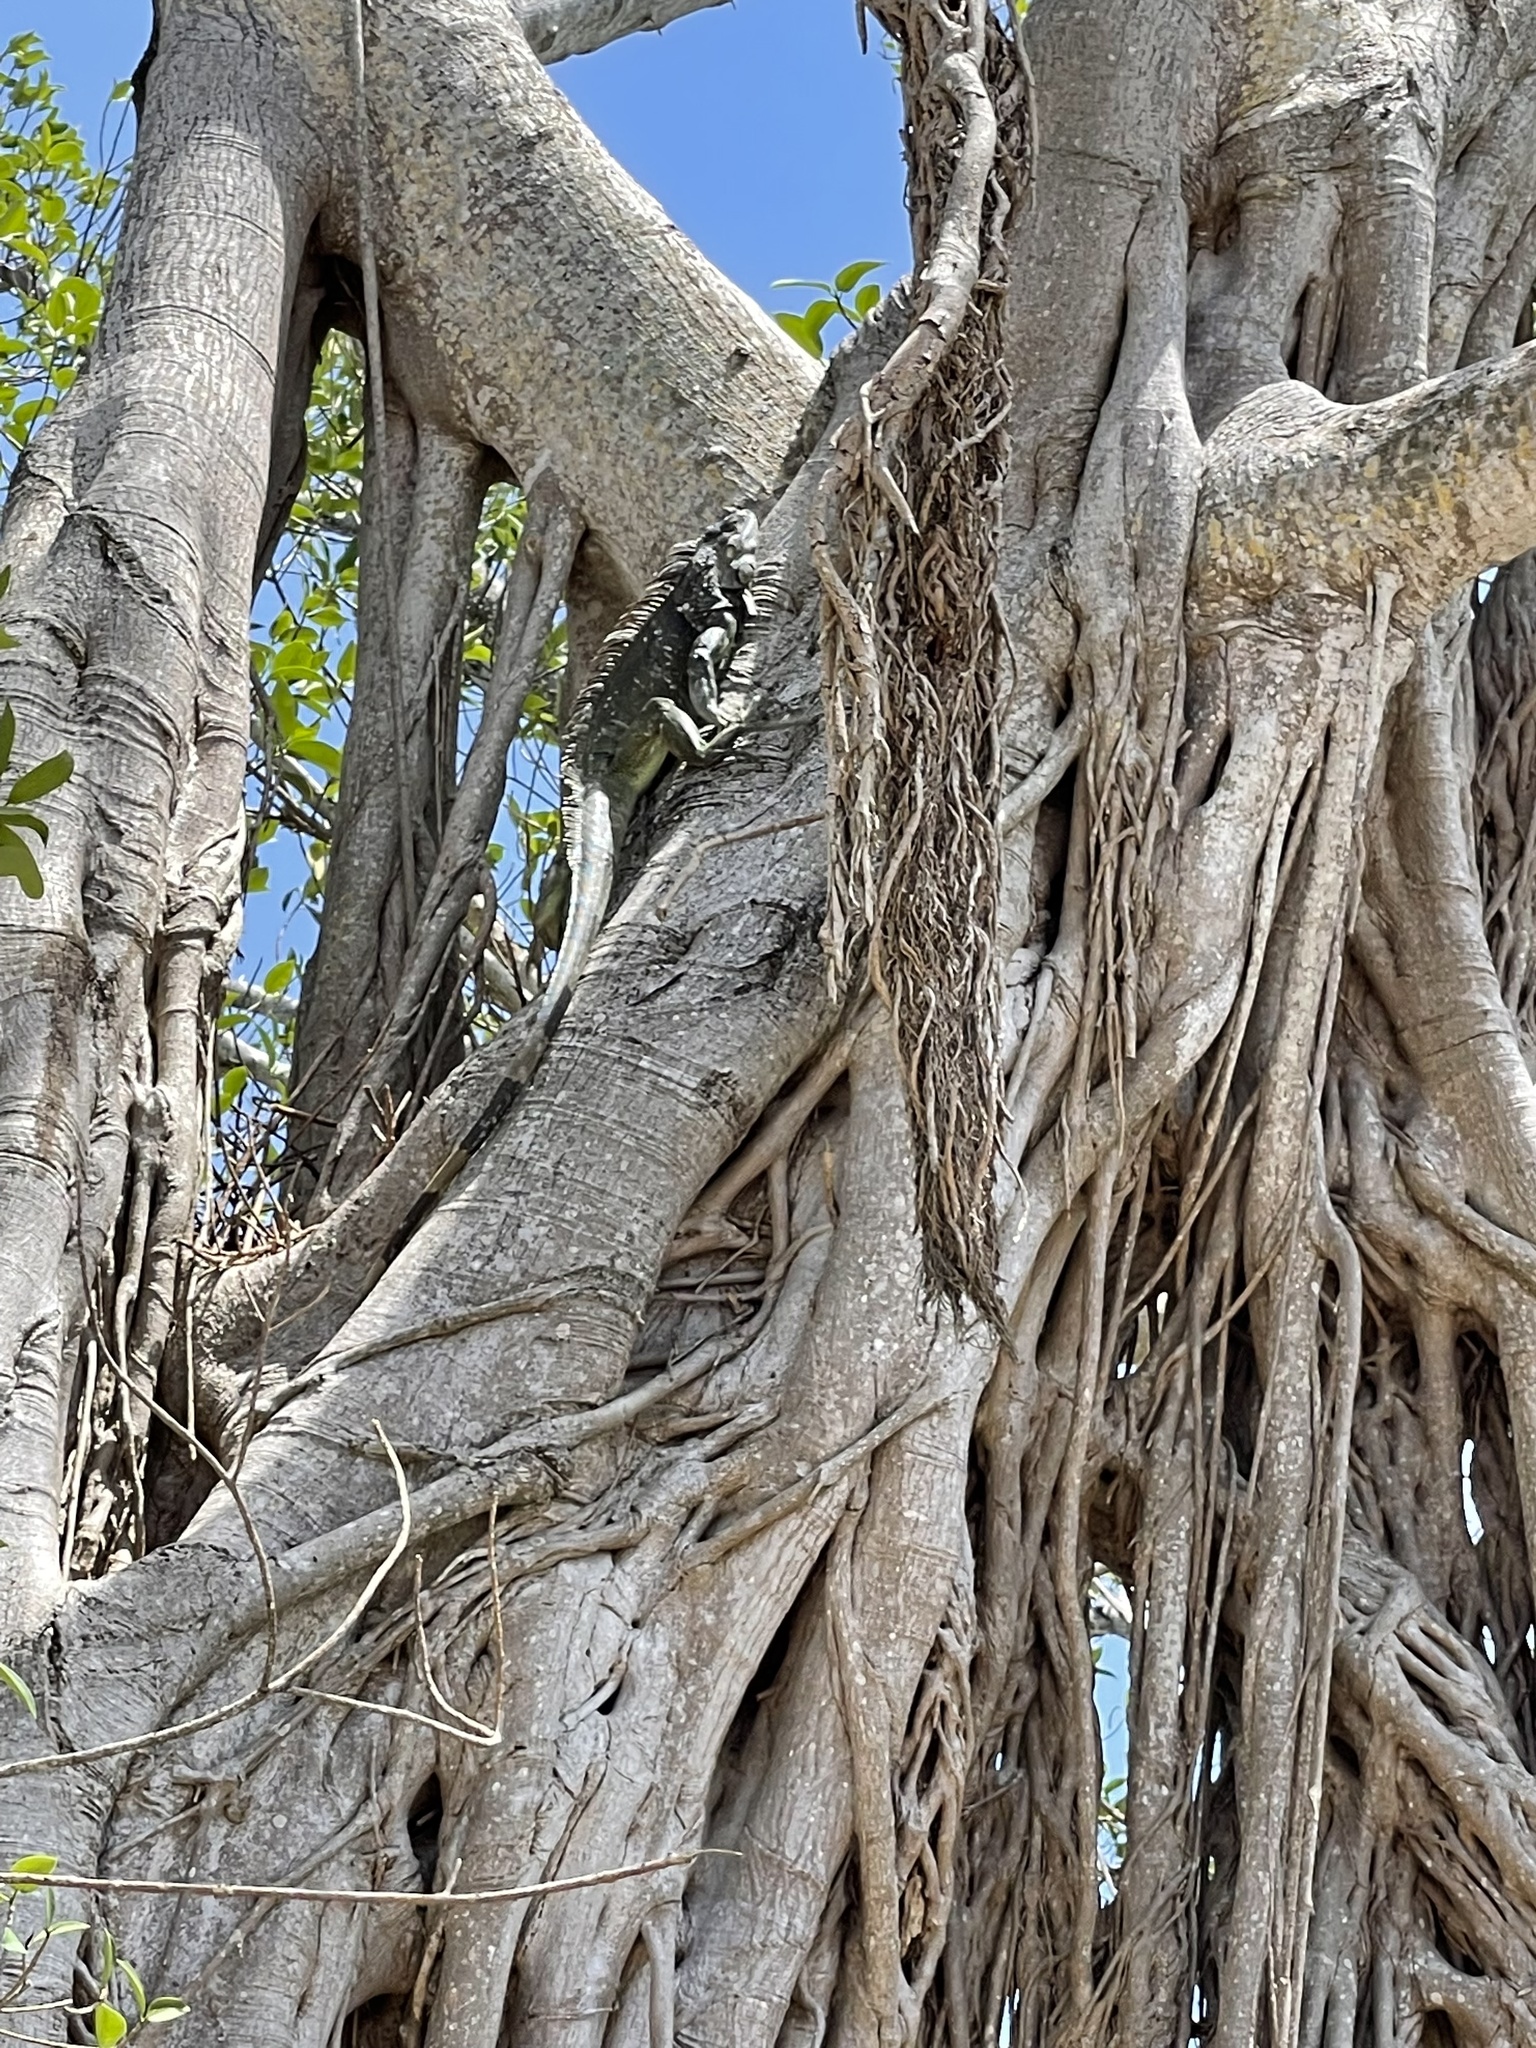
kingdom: Animalia
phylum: Chordata
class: Squamata
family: Iguanidae
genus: Iguana
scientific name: Iguana iguana
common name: Green iguana
